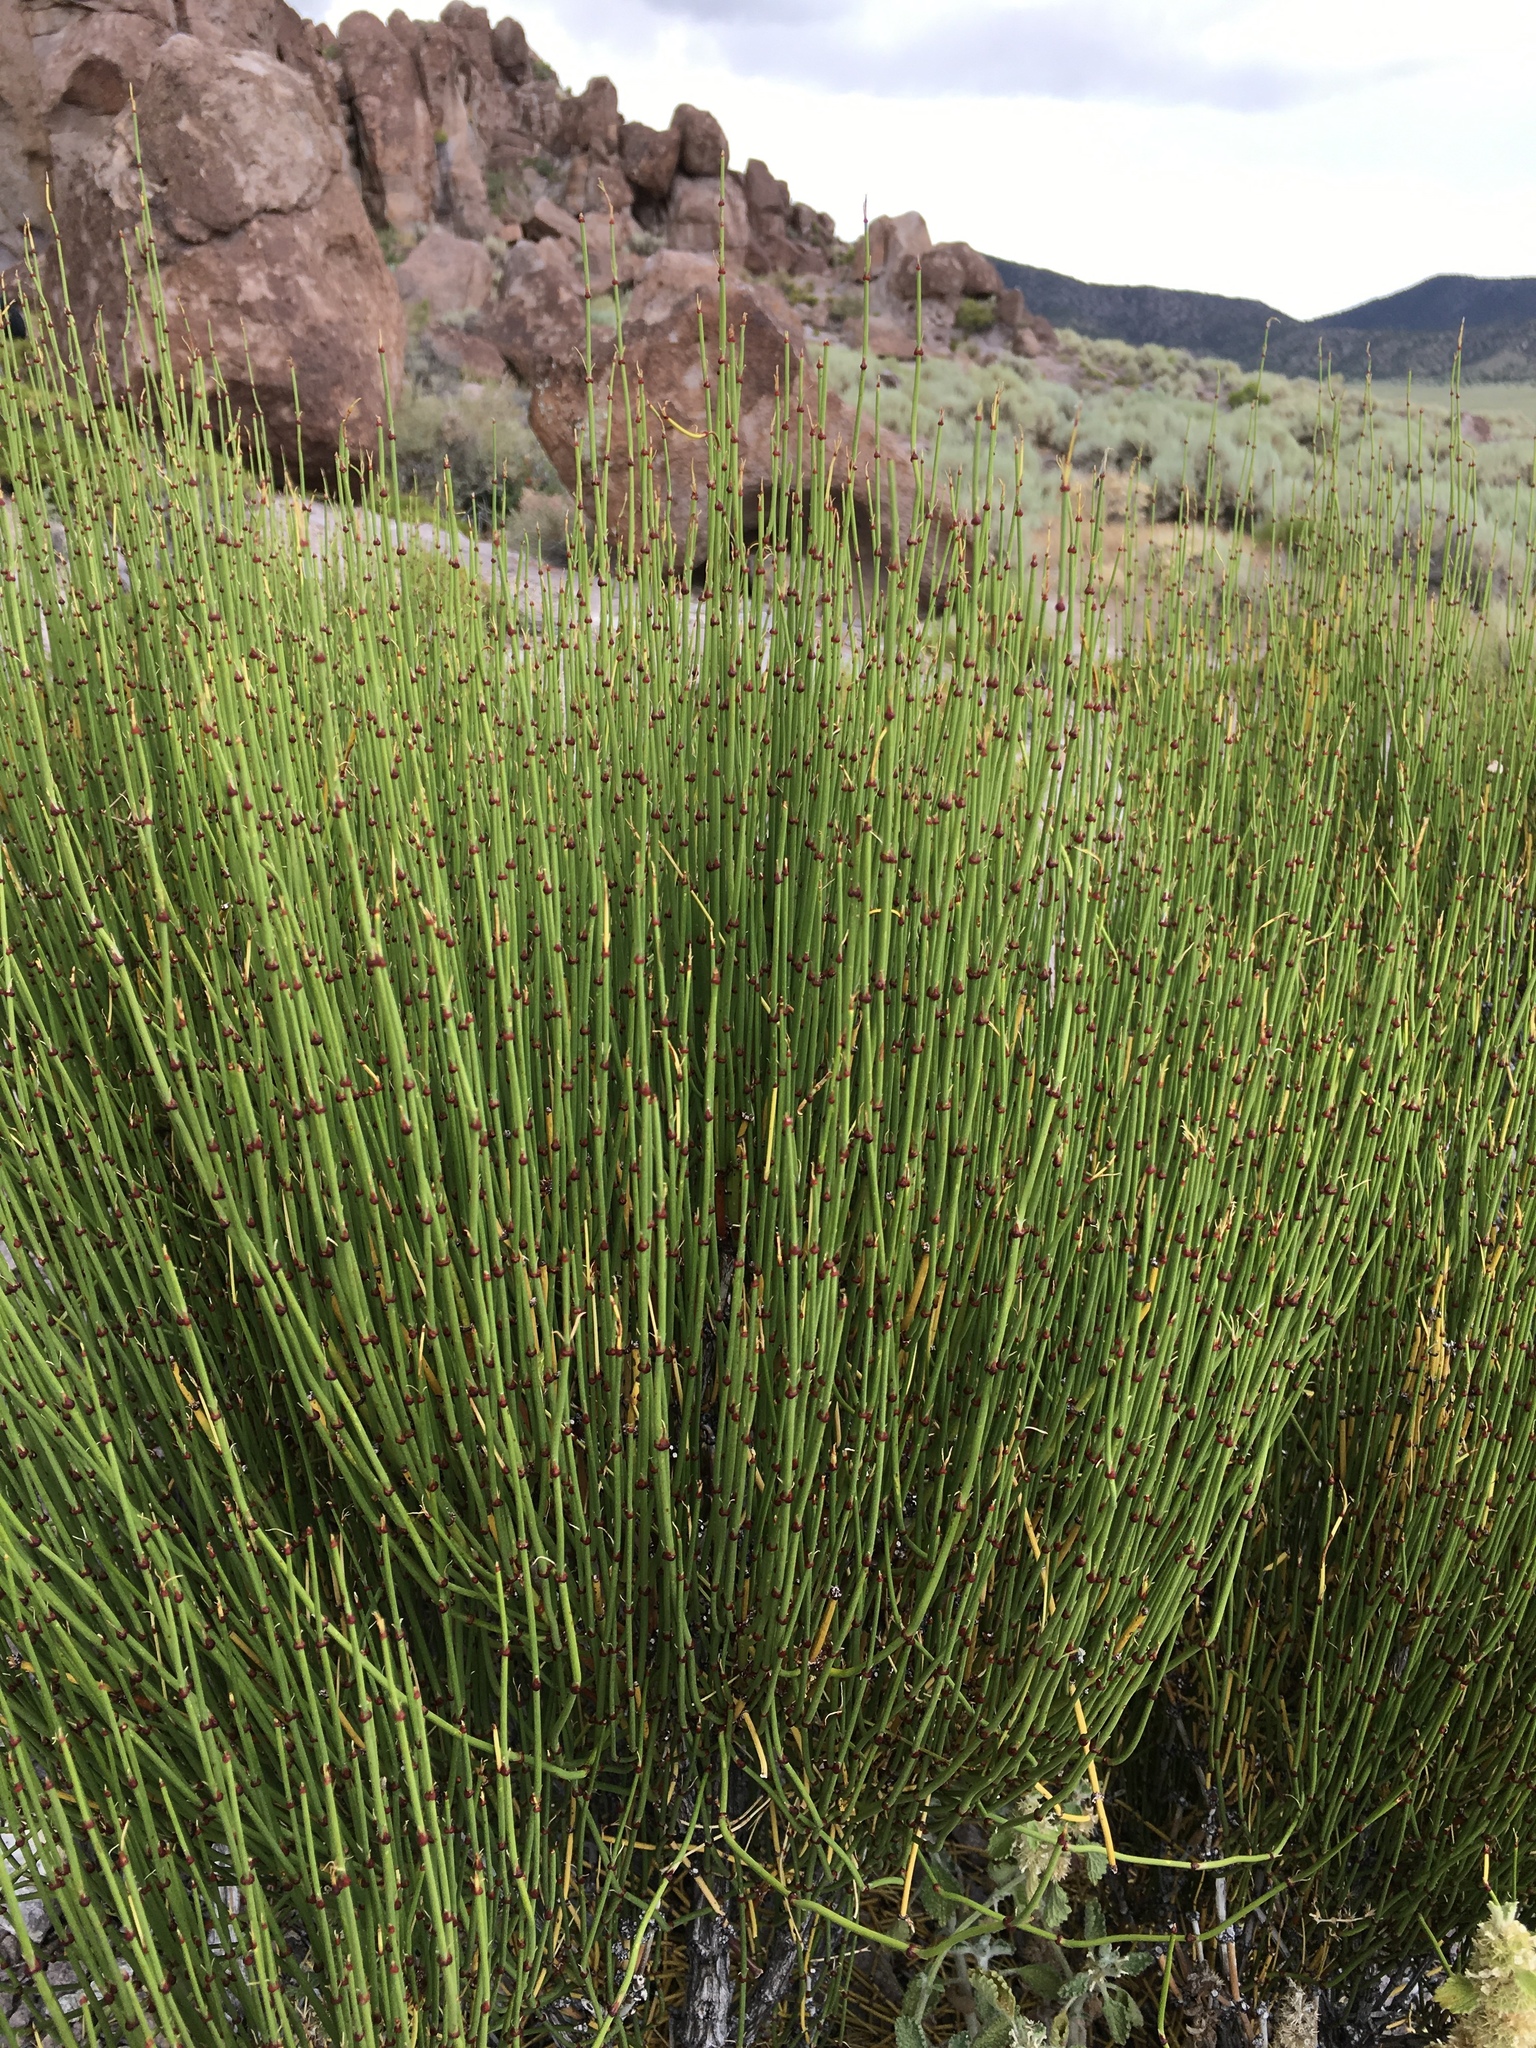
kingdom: Plantae
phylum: Tracheophyta
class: Gnetopsida
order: Ephedrales
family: Ephedraceae
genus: Ephedra
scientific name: Ephedra viridis
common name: Green ephedra
